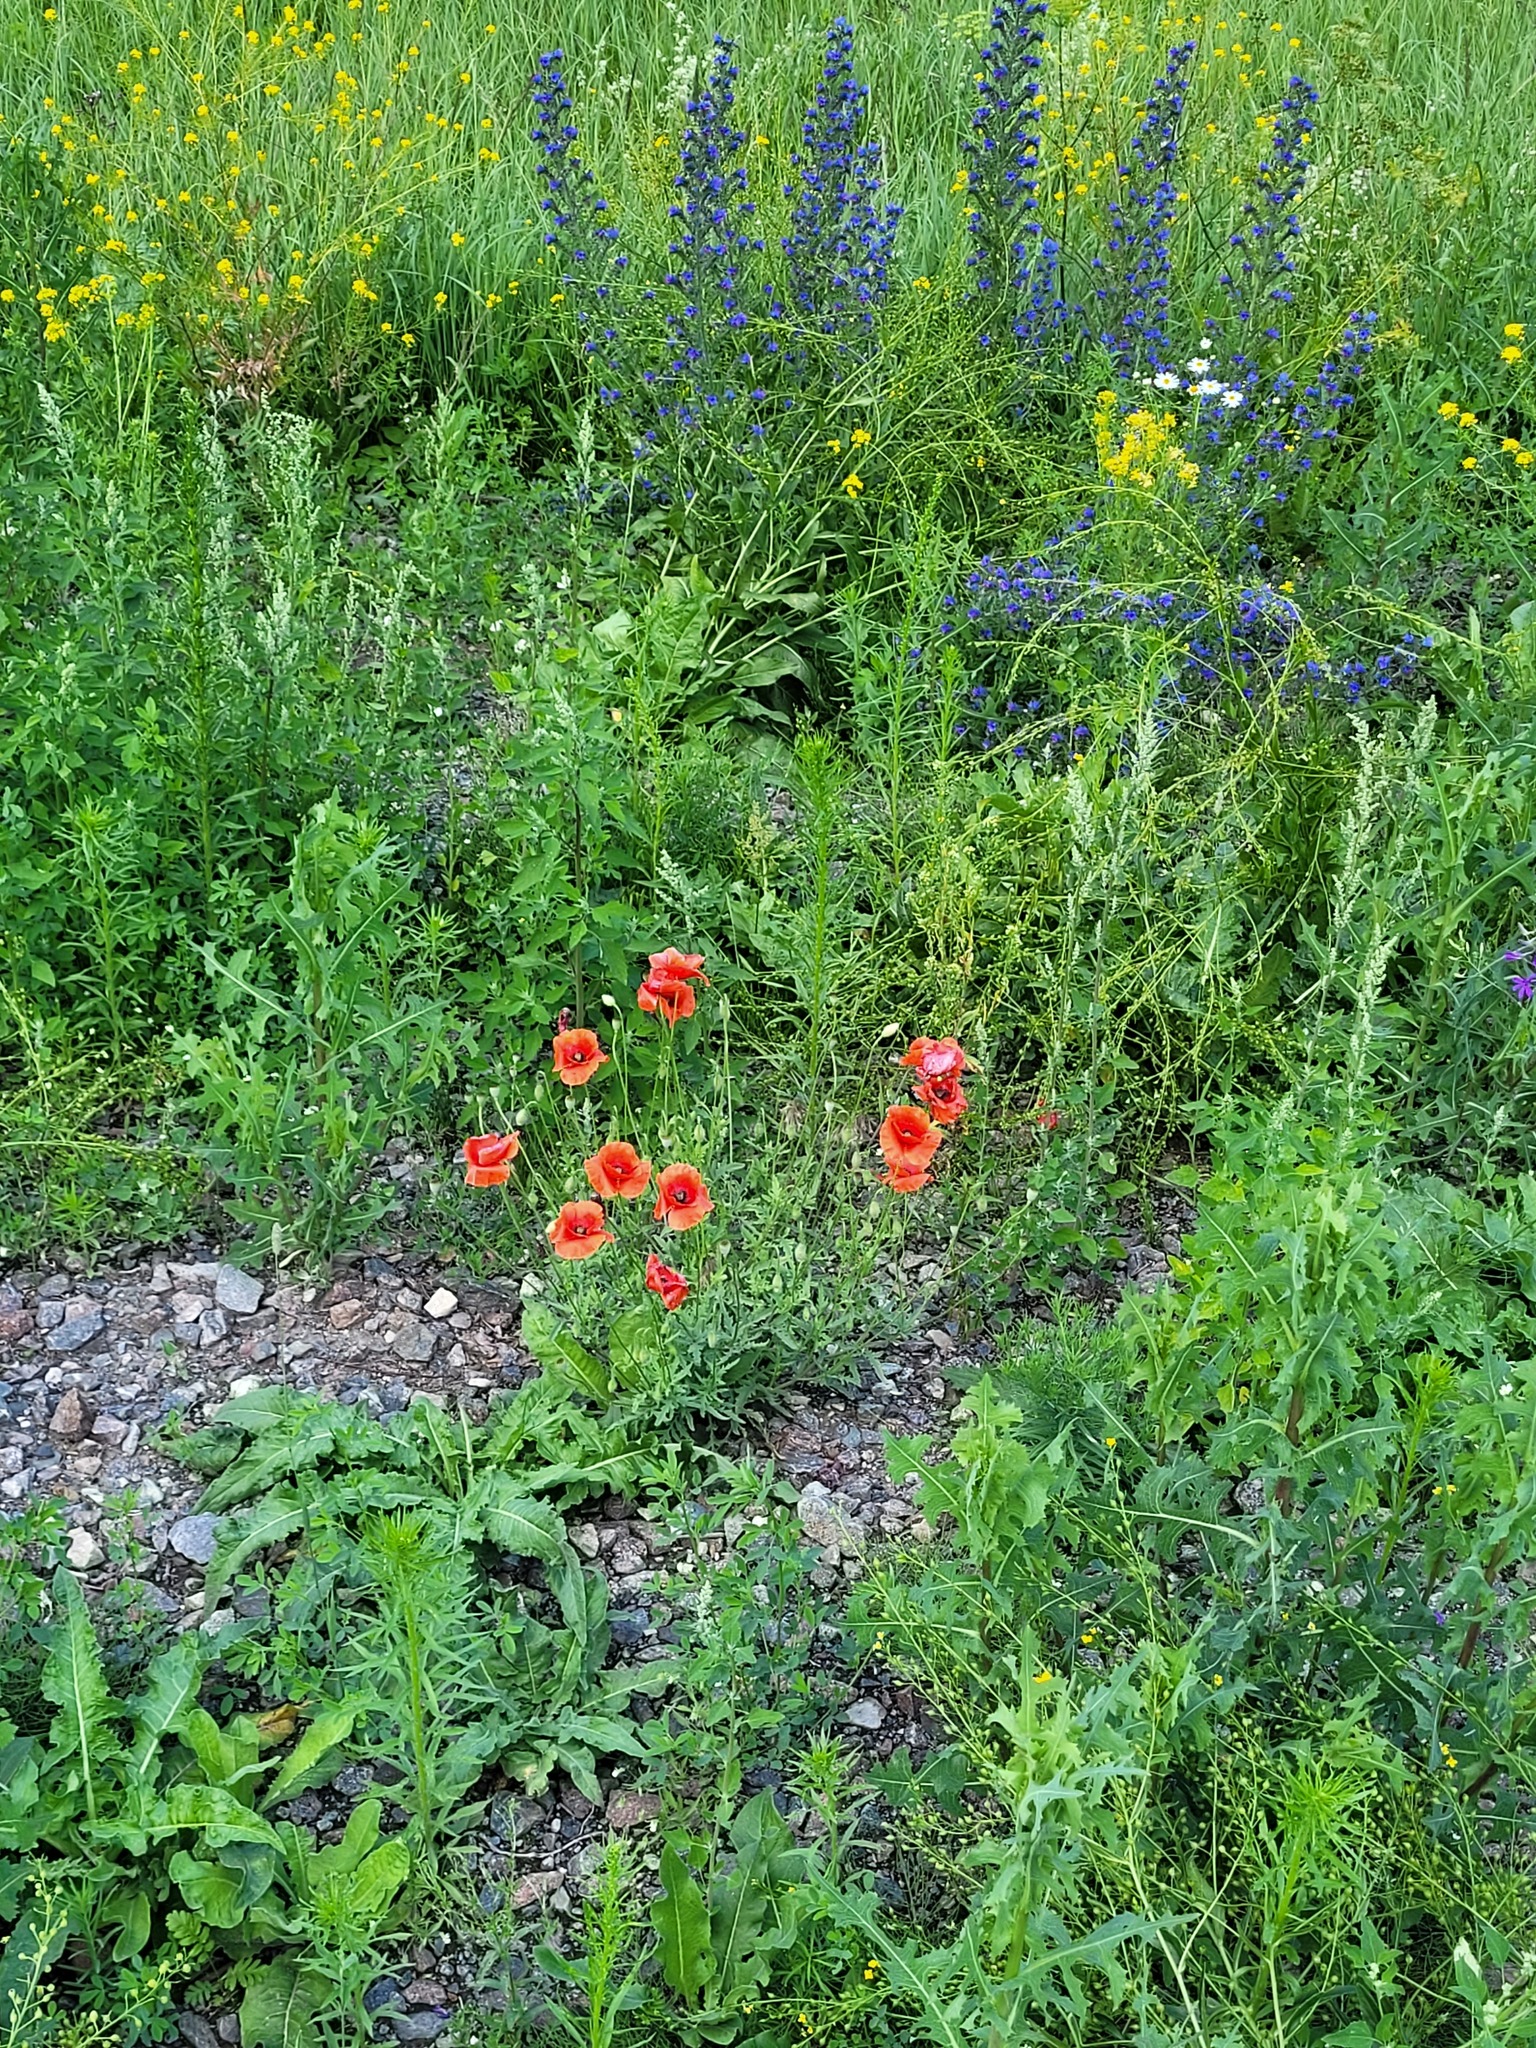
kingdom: Plantae
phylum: Tracheophyta
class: Magnoliopsida
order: Ranunculales
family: Papaveraceae
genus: Papaver
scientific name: Papaver rhoeas
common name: Corn poppy
